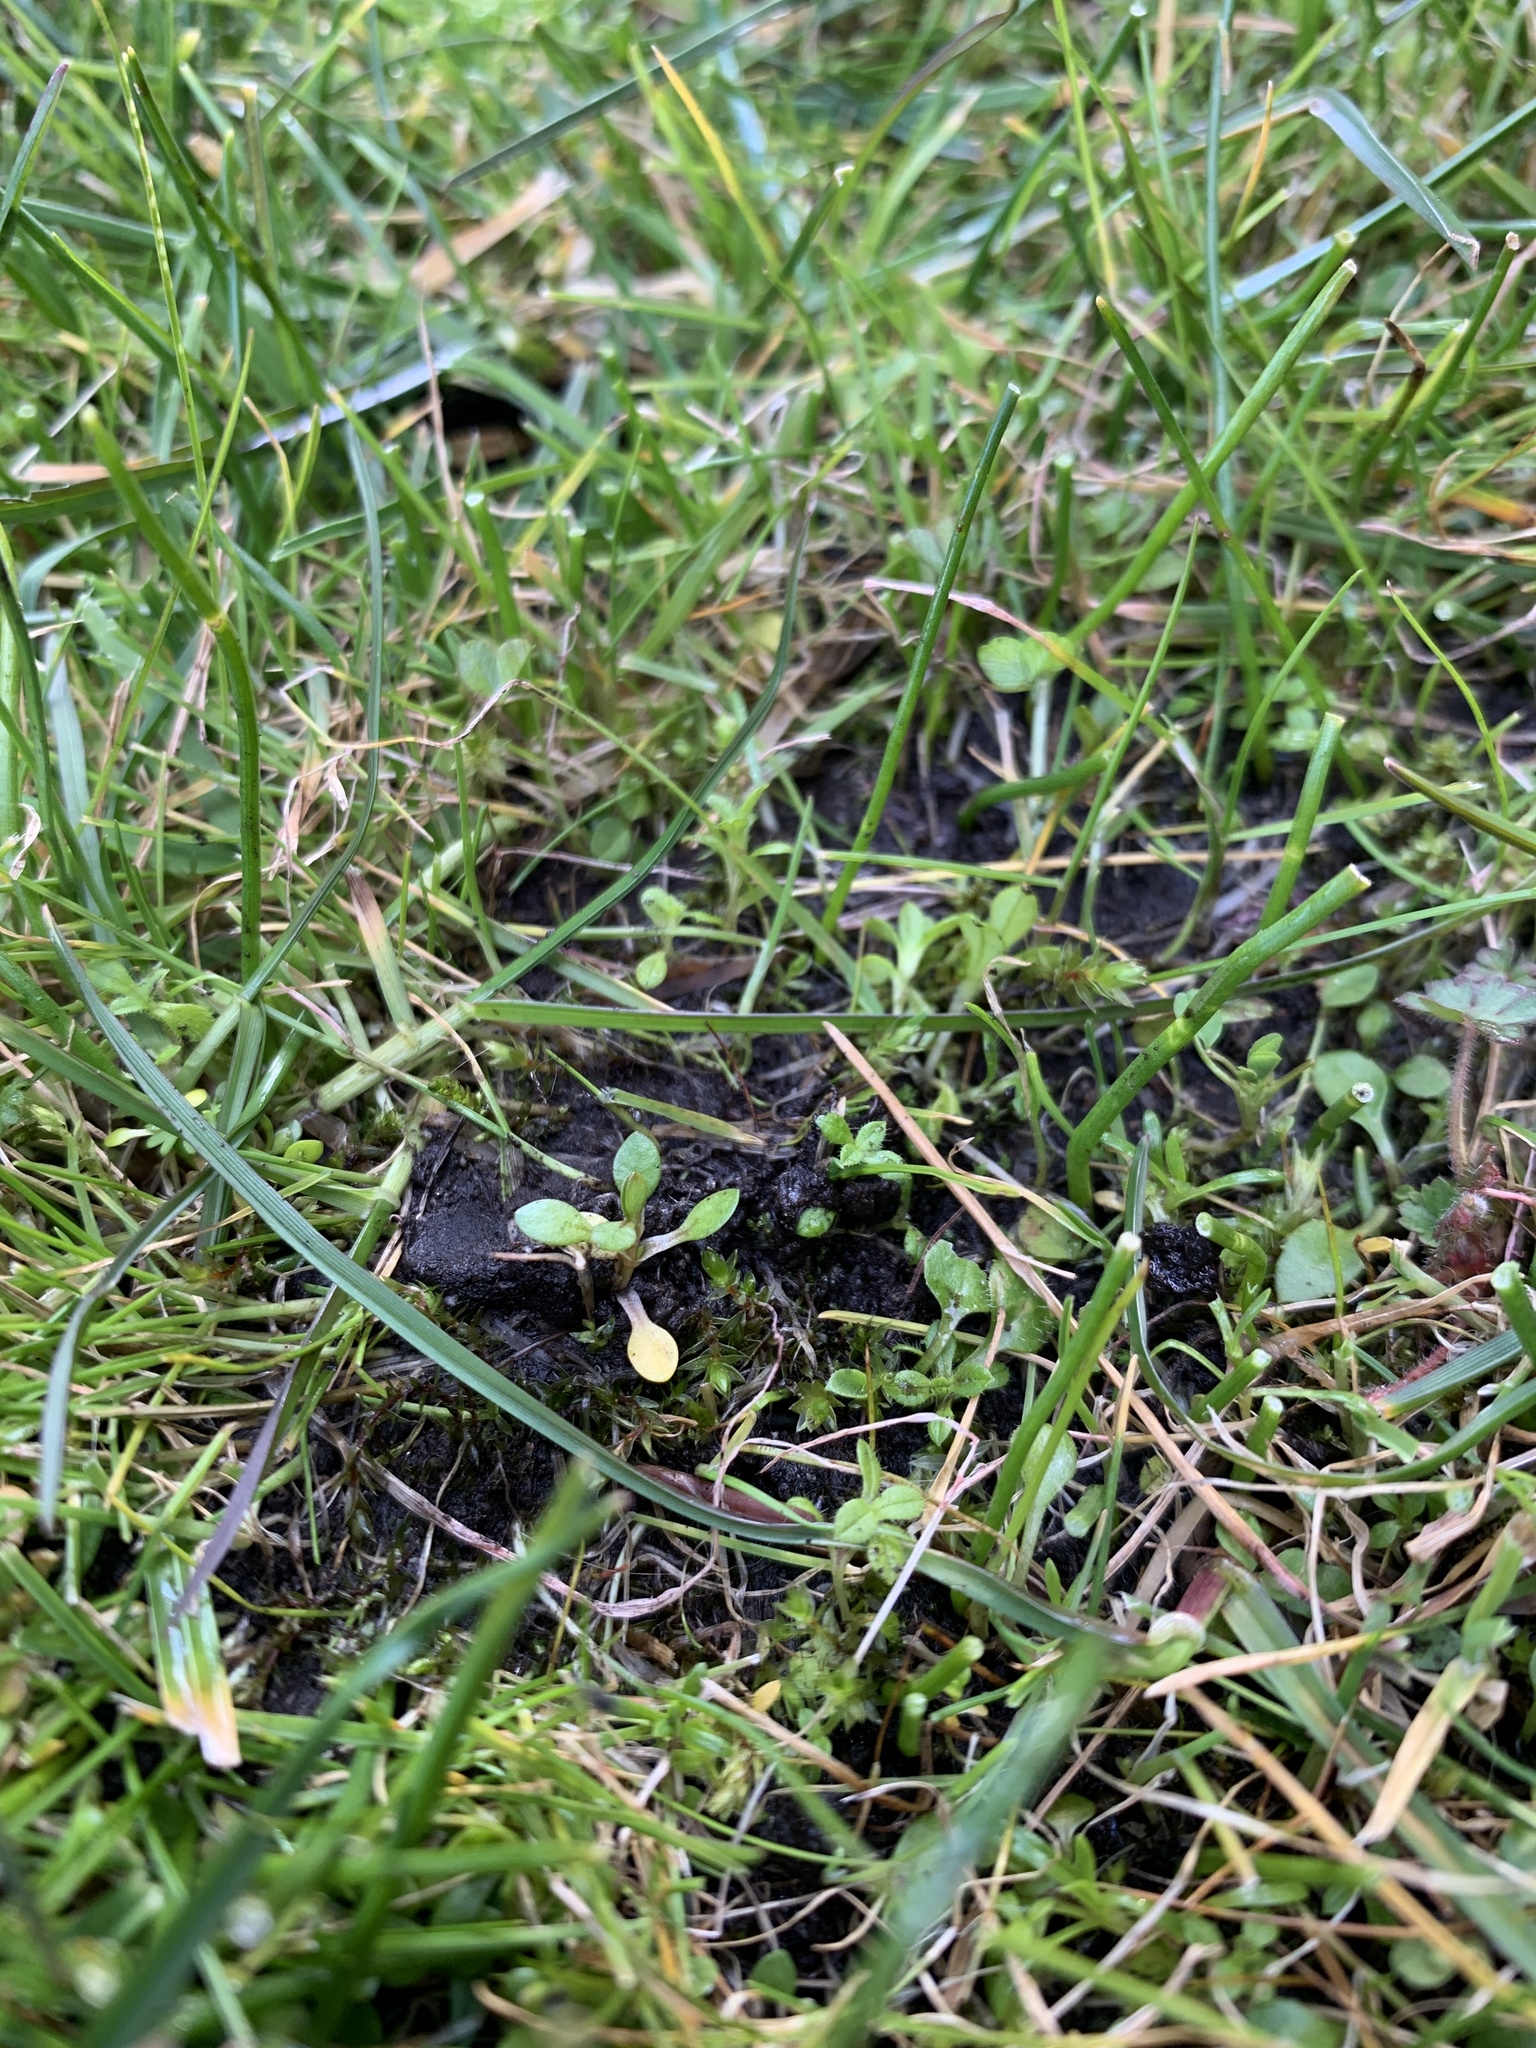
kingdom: Plantae
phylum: Tracheophyta
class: Magnoliopsida
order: Caryophyllales
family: Montiaceae
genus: Montia
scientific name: Montia fontana
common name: Blinks
